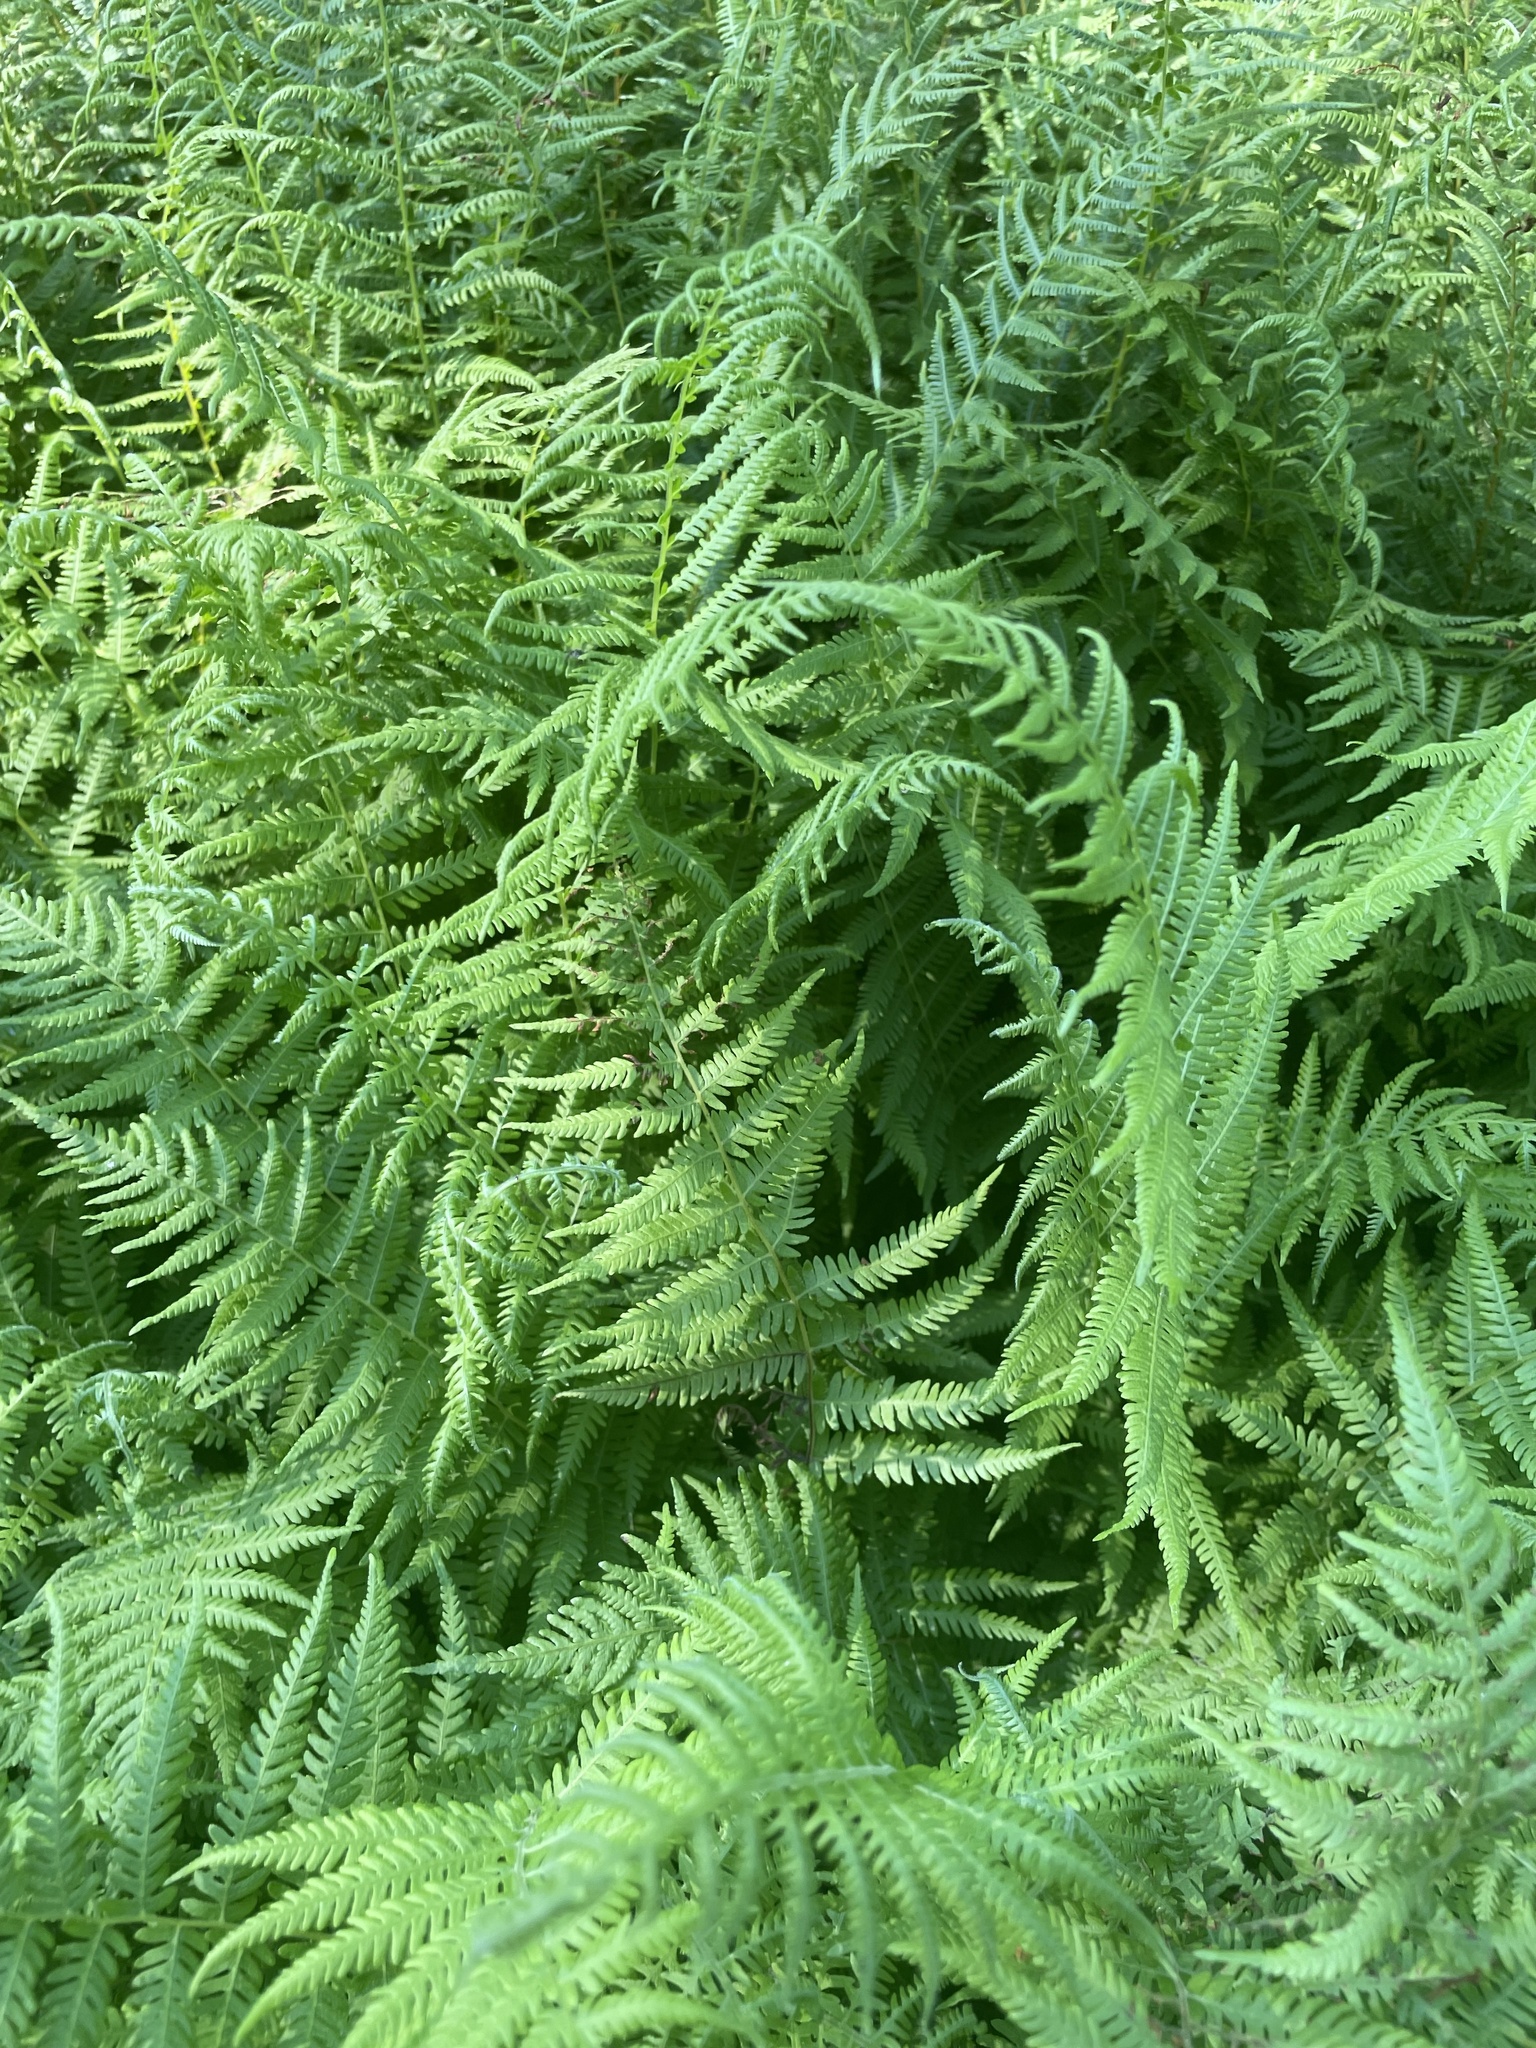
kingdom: Plantae
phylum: Tracheophyta
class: Polypodiopsida
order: Polypodiales
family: Thelypteridaceae
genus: Amauropelta
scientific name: Amauropelta noveboracensis
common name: New york fern
